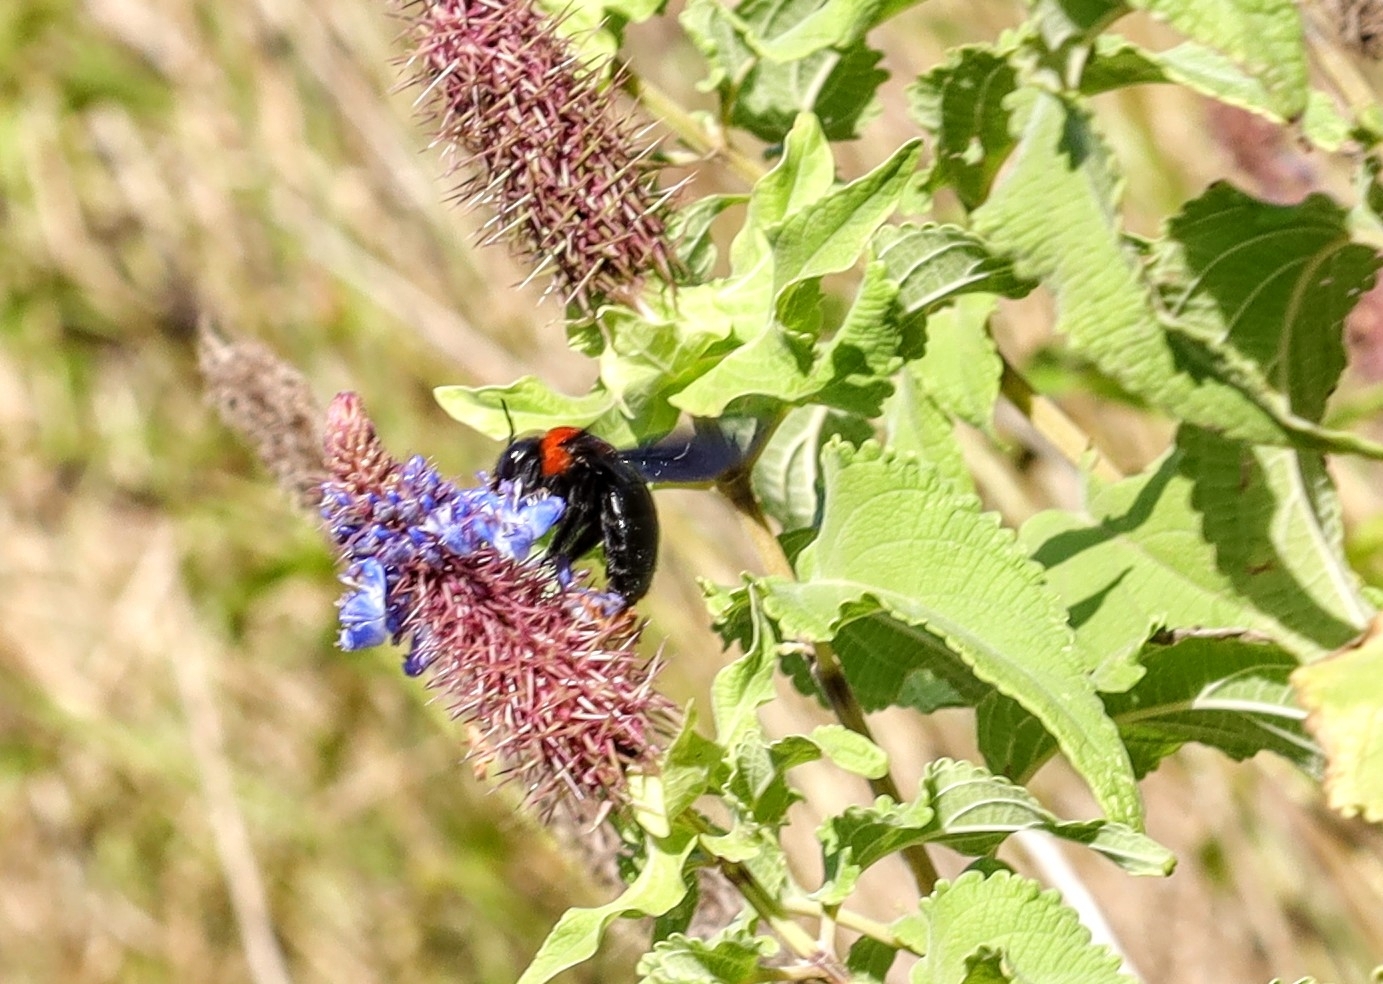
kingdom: Animalia
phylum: Arthropoda
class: Insecta
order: Hymenoptera
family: Apidae
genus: Xylocopa
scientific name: Xylocopa flavorufa
